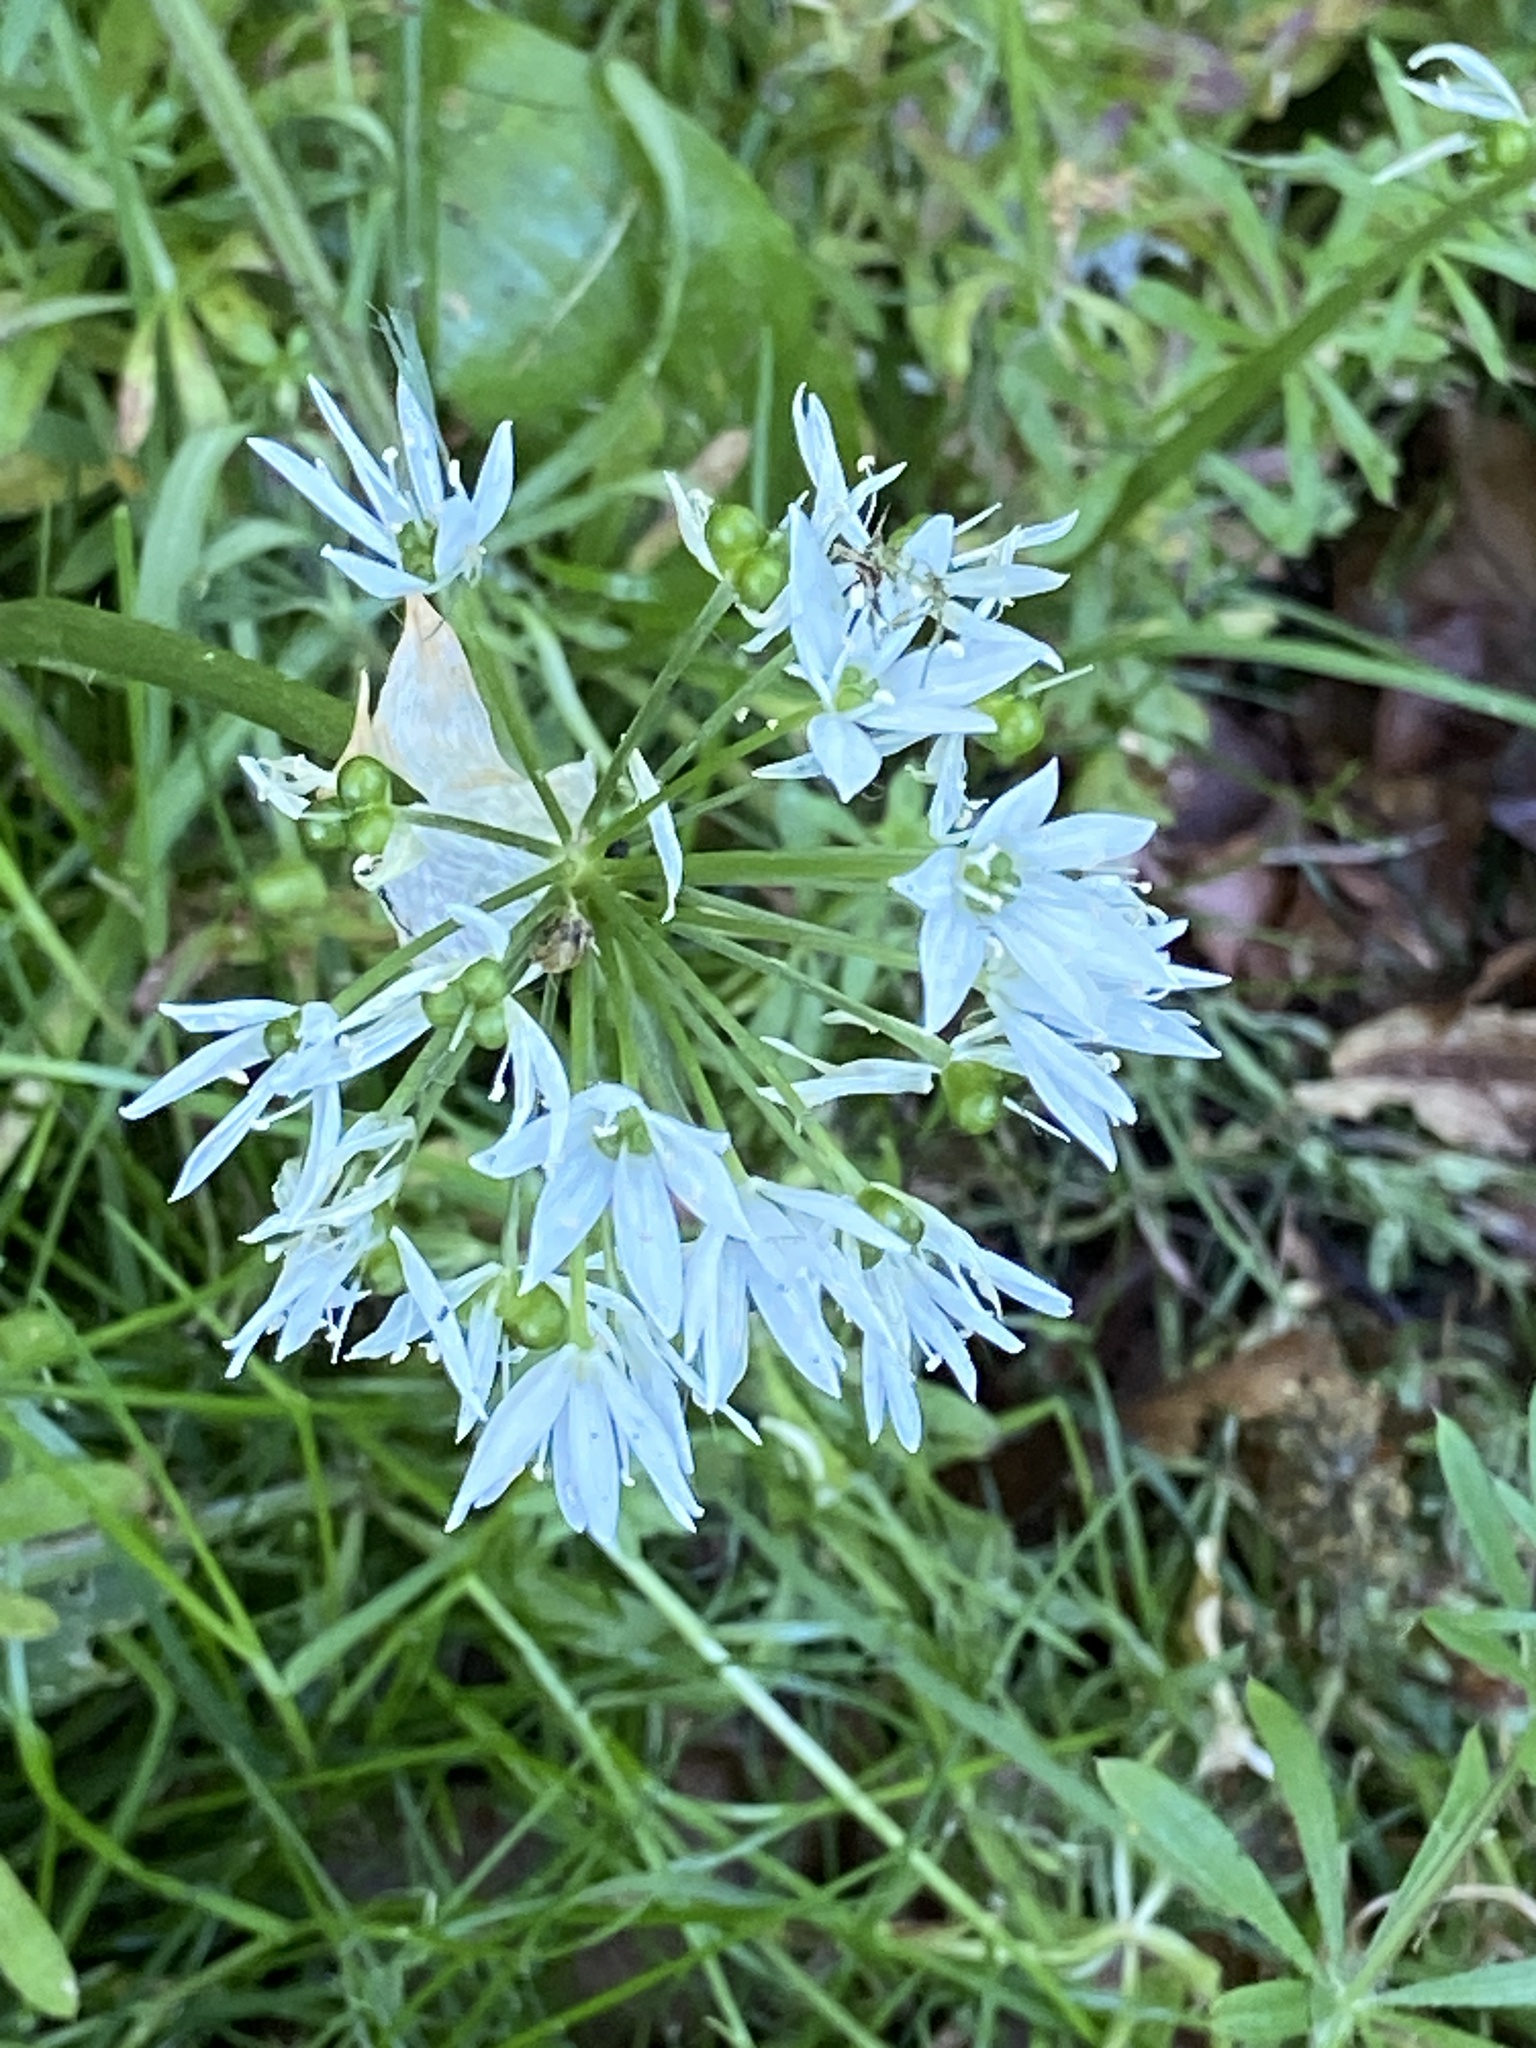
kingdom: Plantae
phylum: Tracheophyta
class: Liliopsida
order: Asparagales
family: Amaryllidaceae
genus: Allium
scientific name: Allium ursinum
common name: Ramsons
